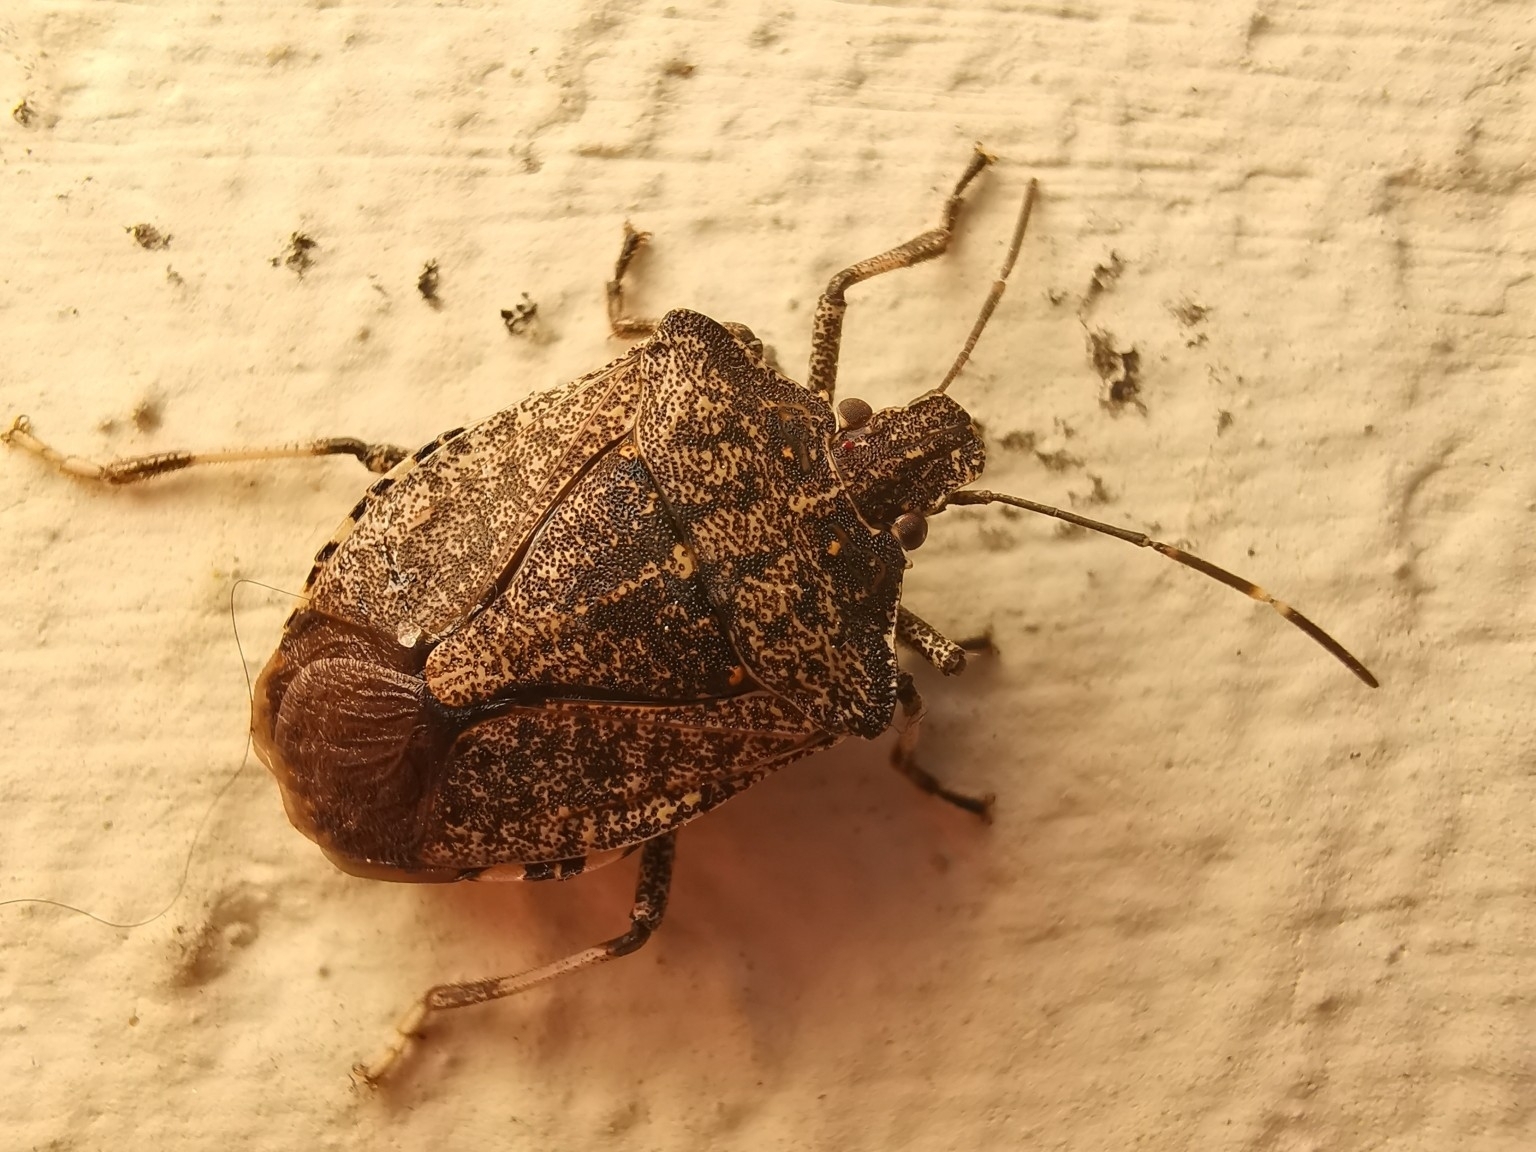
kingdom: Animalia
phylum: Arthropoda
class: Insecta
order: Hemiptera
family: Pentatomidae
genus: Halyomorpha
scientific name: Halyomorpha halys
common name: Brown marmorated stink bug
